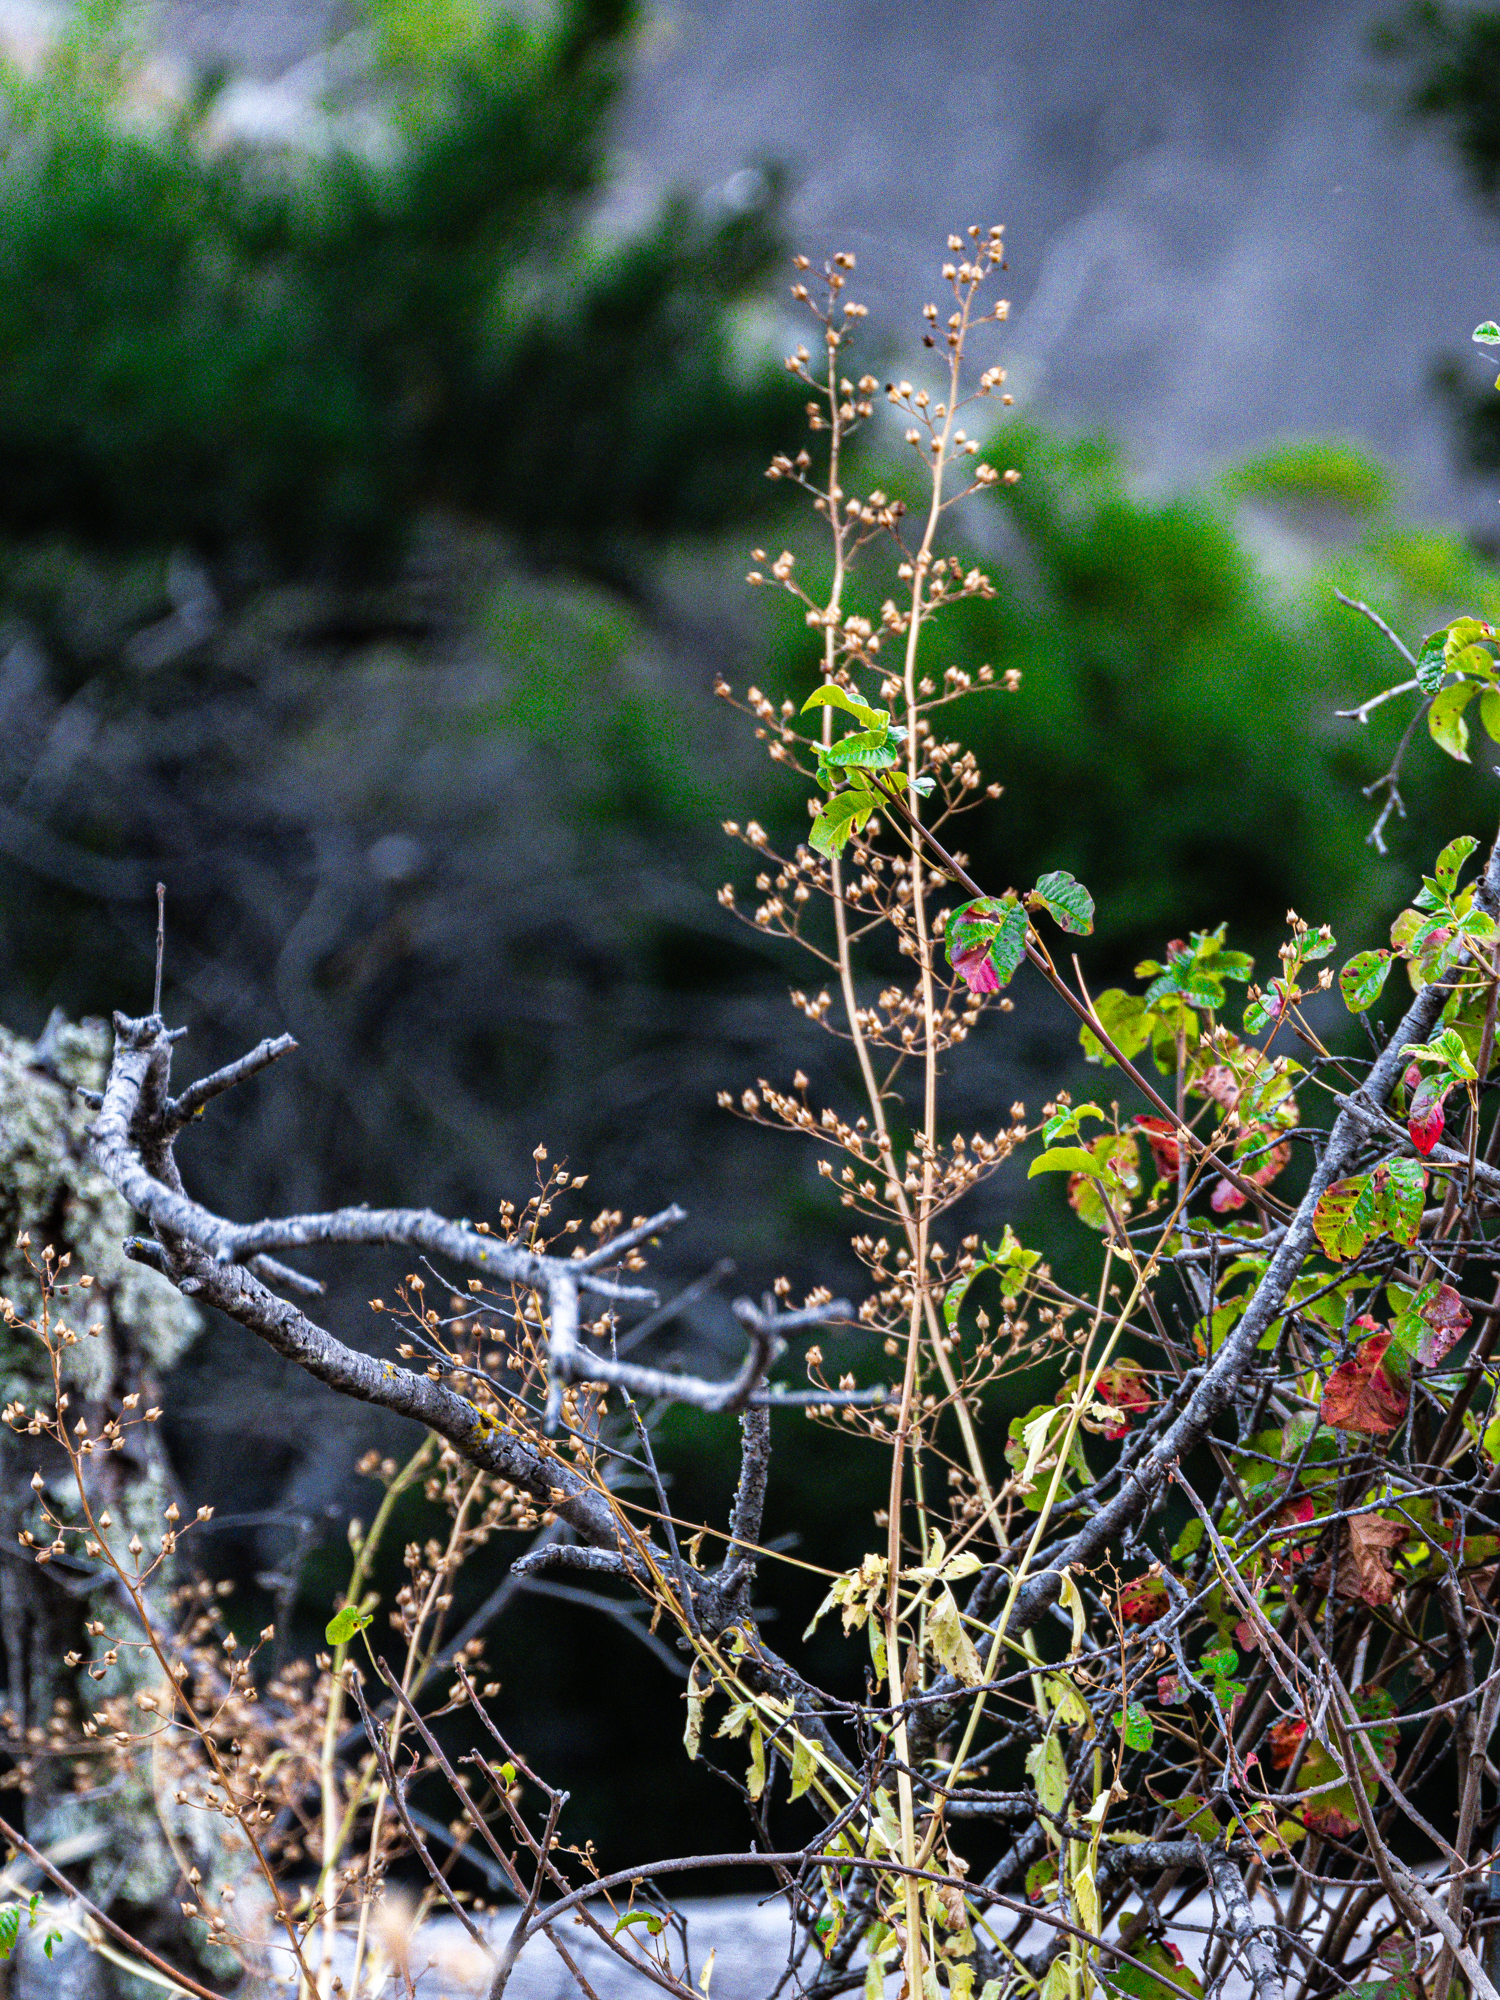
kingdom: Plantae
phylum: Tracheophyta
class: Magnoliopsida
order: Lamiales
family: Scrophulariaceae
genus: Scrophularia
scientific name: Scrophularia californica
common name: California figwort
